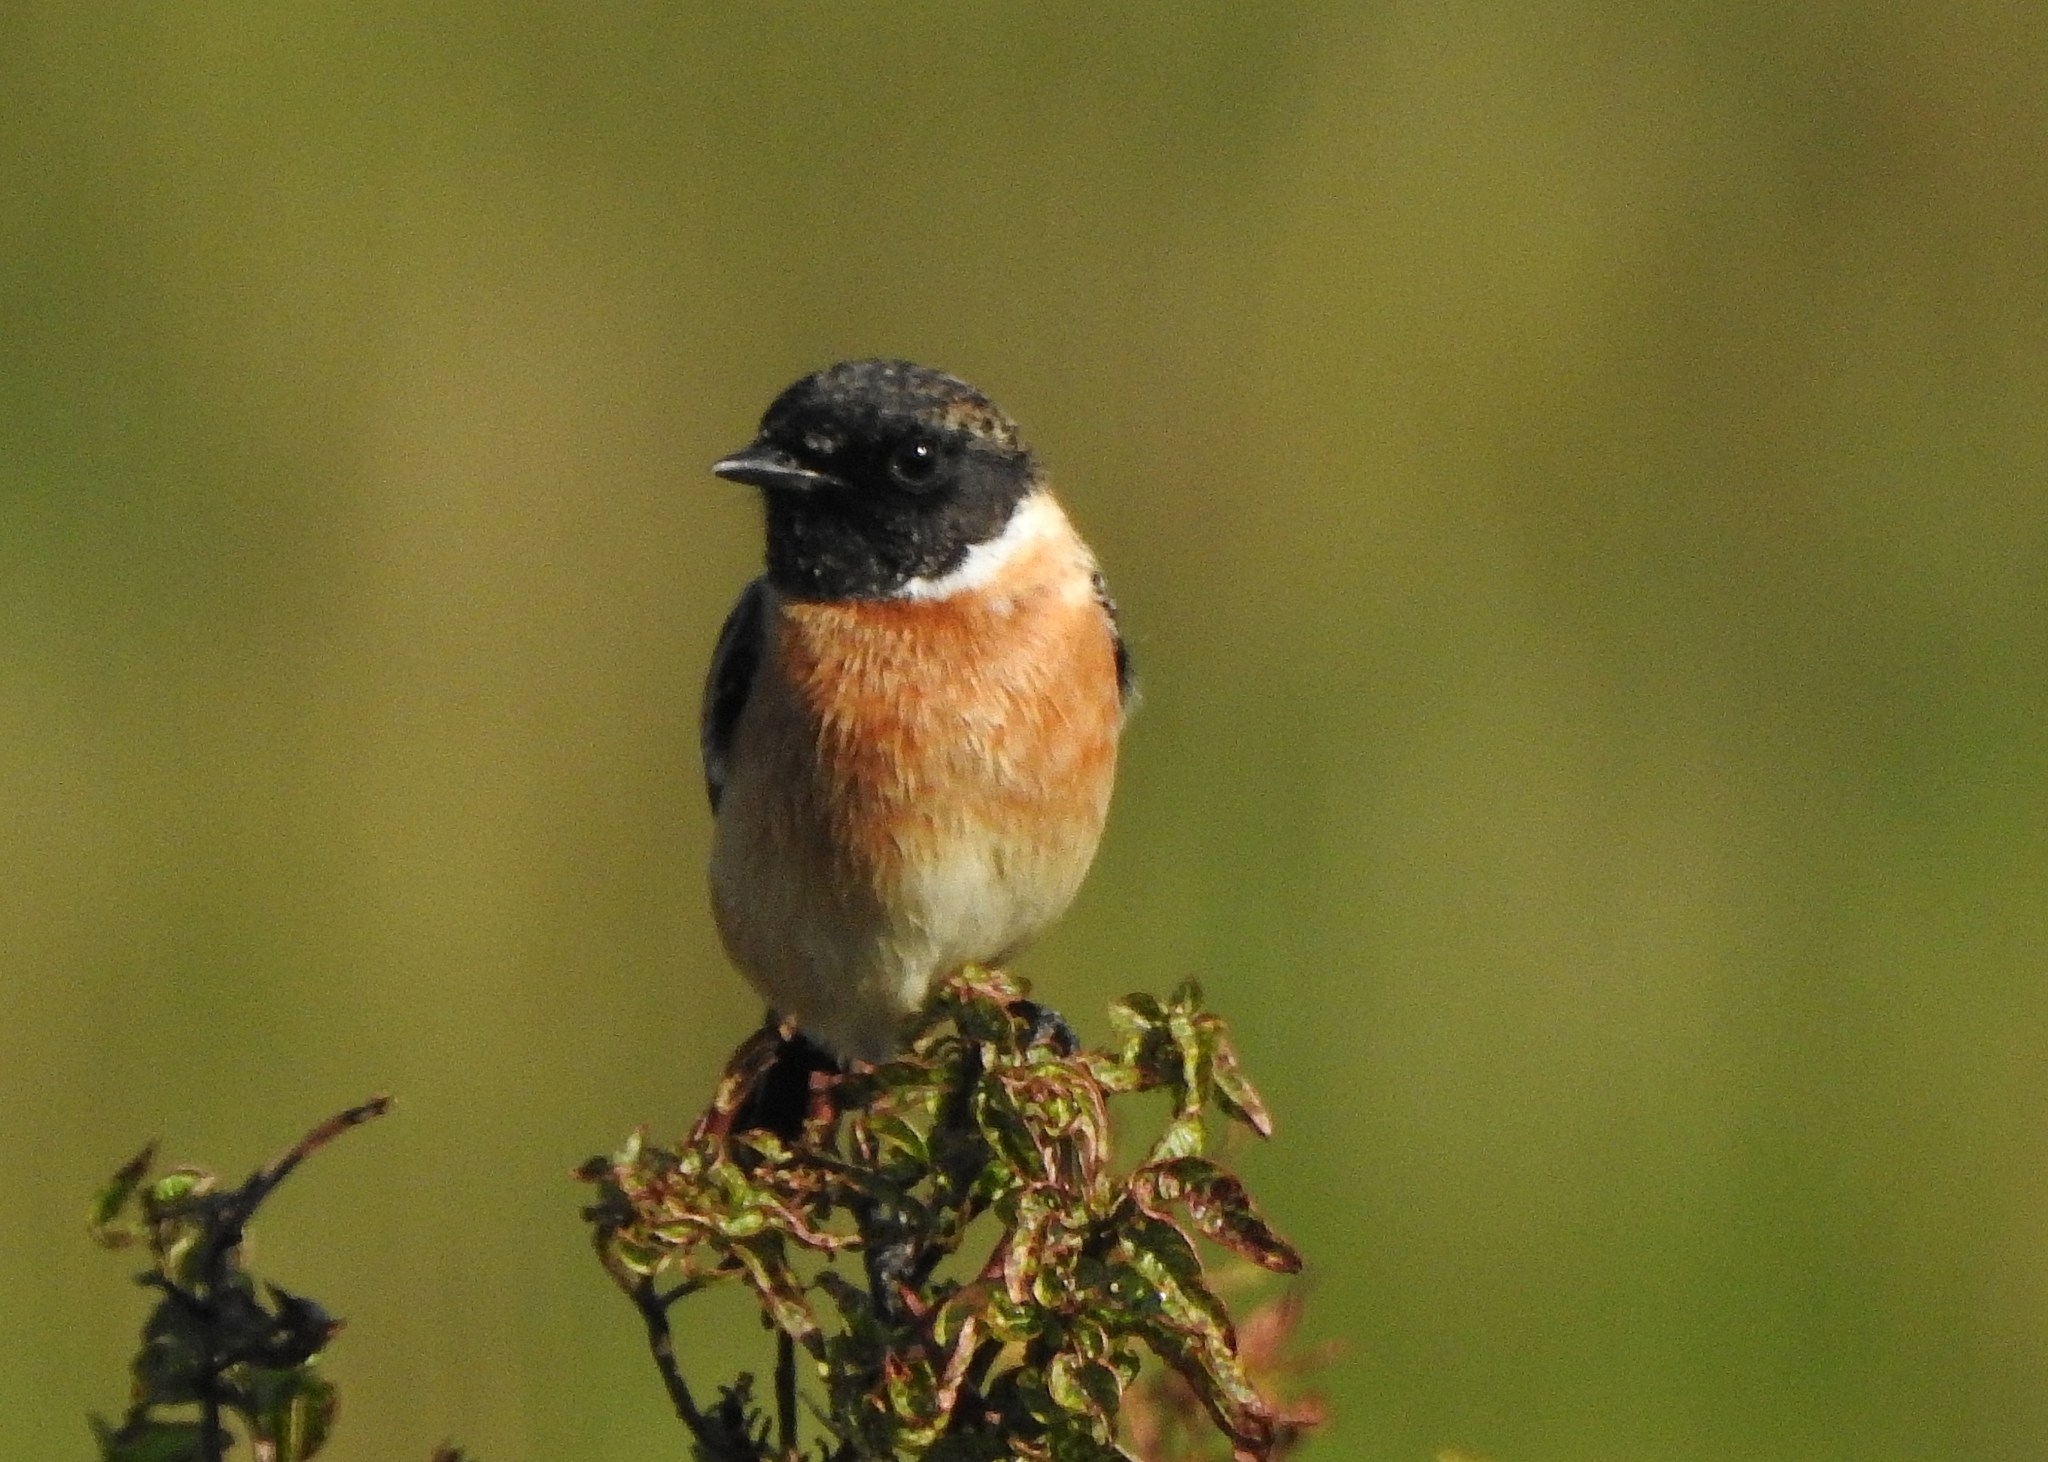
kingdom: Animalia
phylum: Chordata
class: Aves
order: Passeriformes
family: Muscicapidae
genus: Saxicola
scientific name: Saxicola maurus
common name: Siberian stonechat
